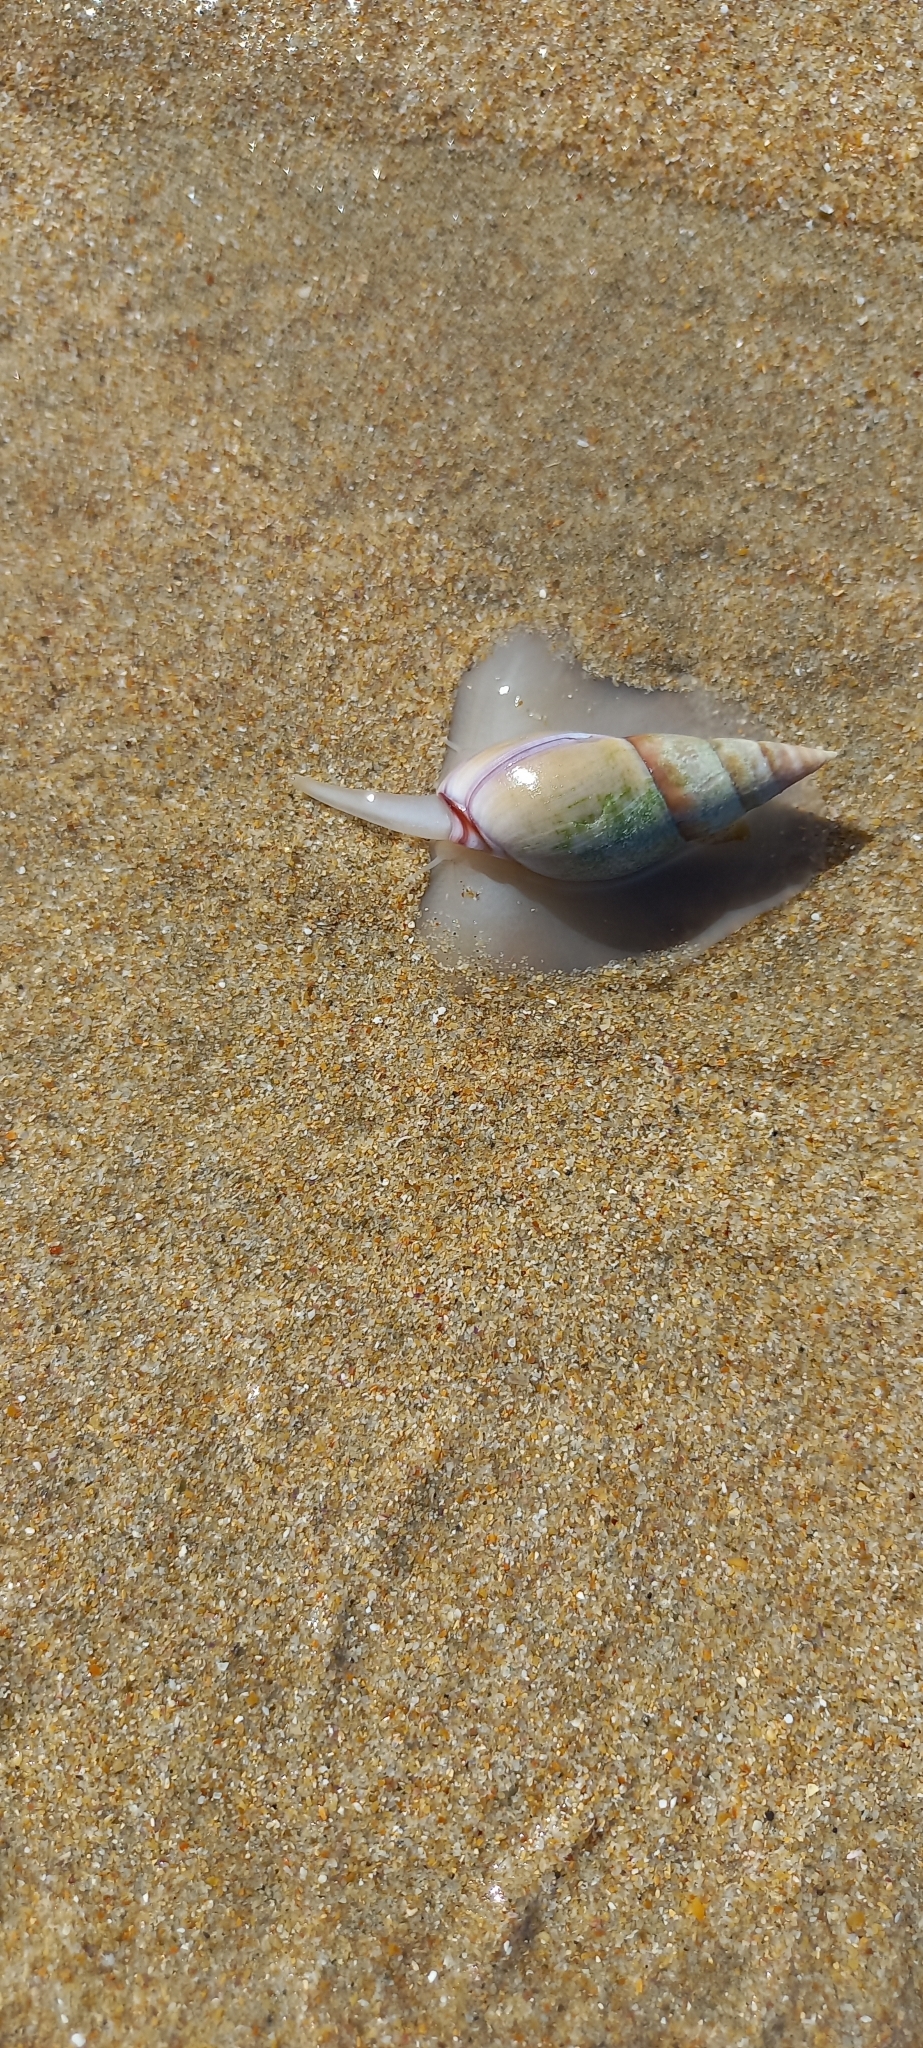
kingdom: Animalia
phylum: Mollusca
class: Gastropoda
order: Neogastropoda
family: Nassariidae
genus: Bullia
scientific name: Bullia rhodostoma
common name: Smooth plough shell
